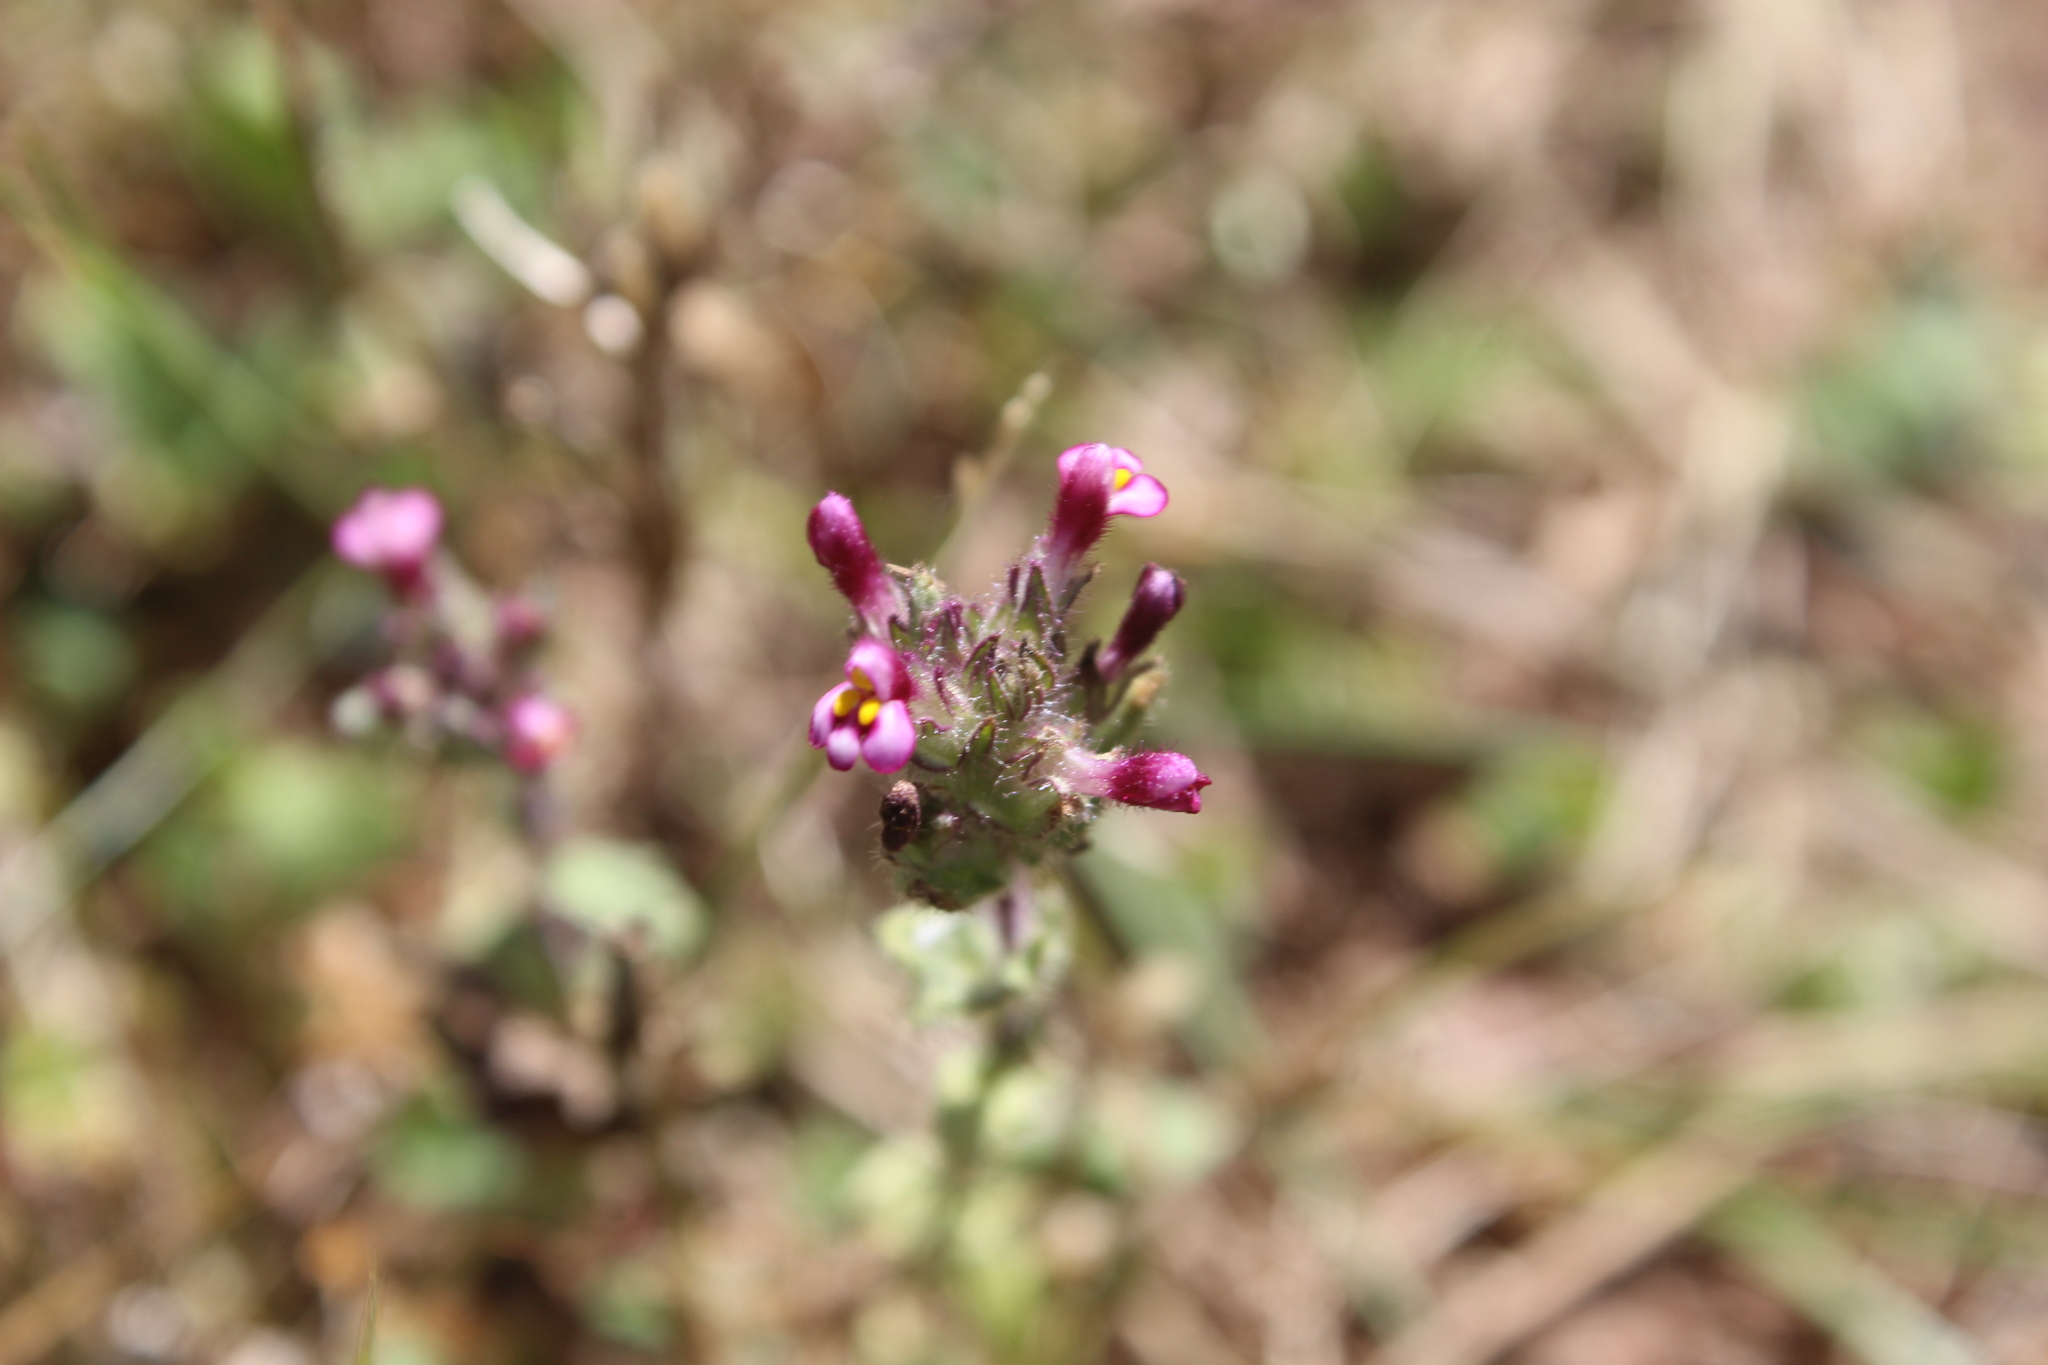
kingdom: Plantae
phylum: Tracheophyta
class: Magnoliopsida
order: Lamiales
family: Orobanchaceae
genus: Parentucellia
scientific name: Parentucellia latifolia
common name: Broadleaf glandweed
